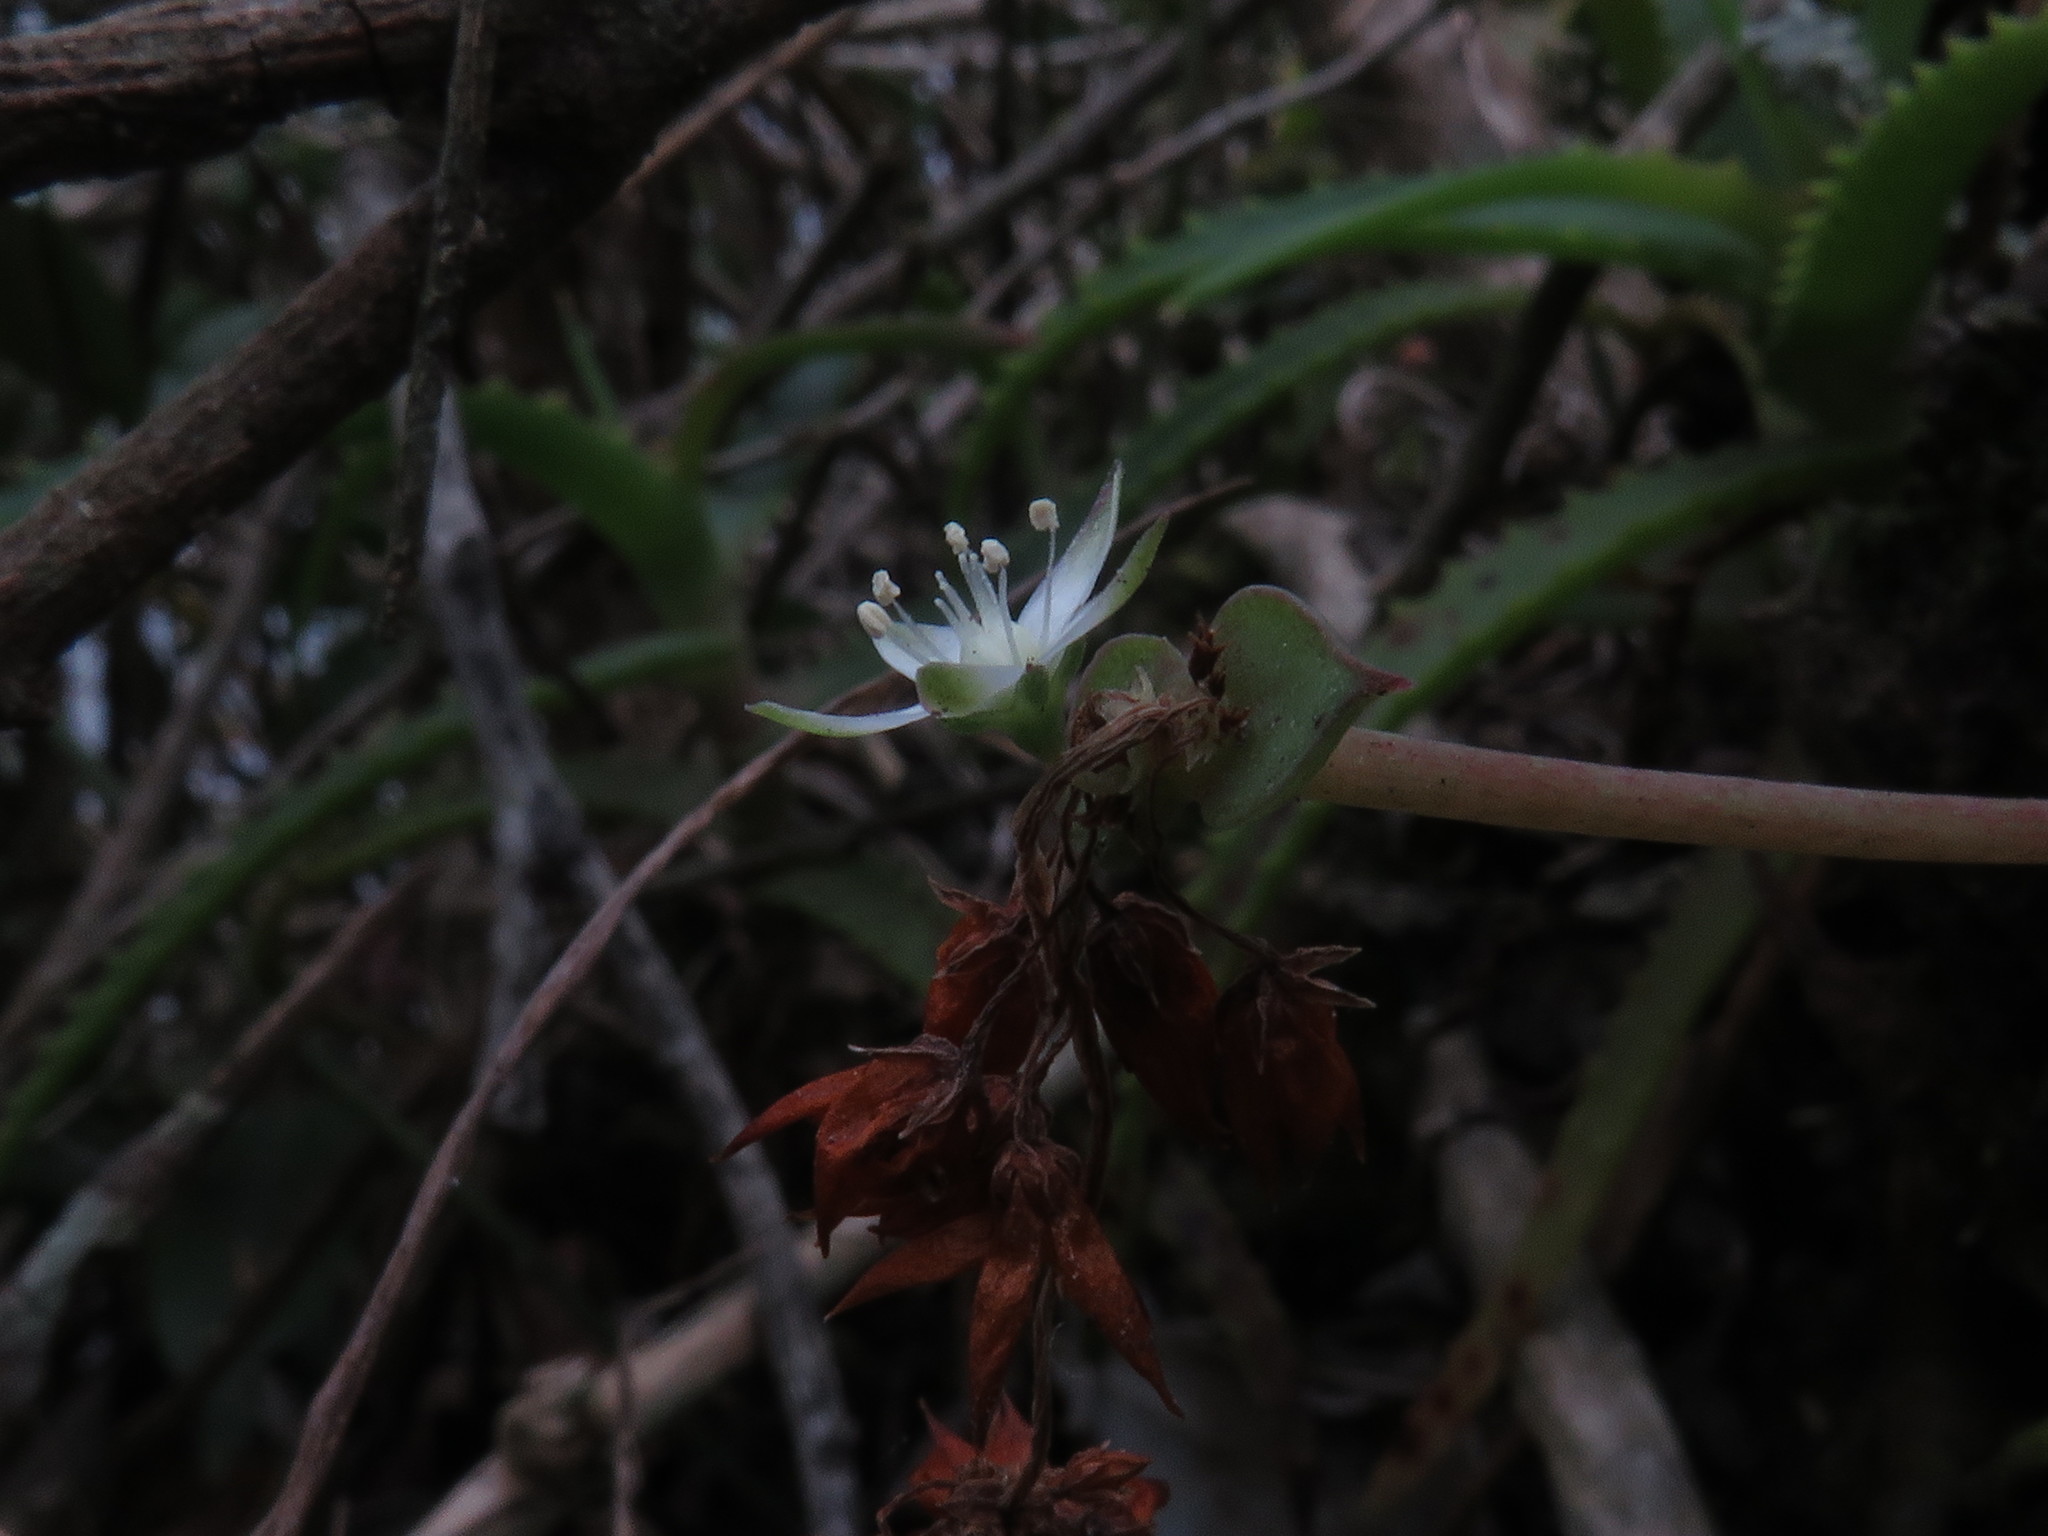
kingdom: Plantae
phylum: Tracheophyta
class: Magnoliopsida
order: Saxifragales
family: Crassulaceae
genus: Crassula
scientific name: Crassula pellucida
